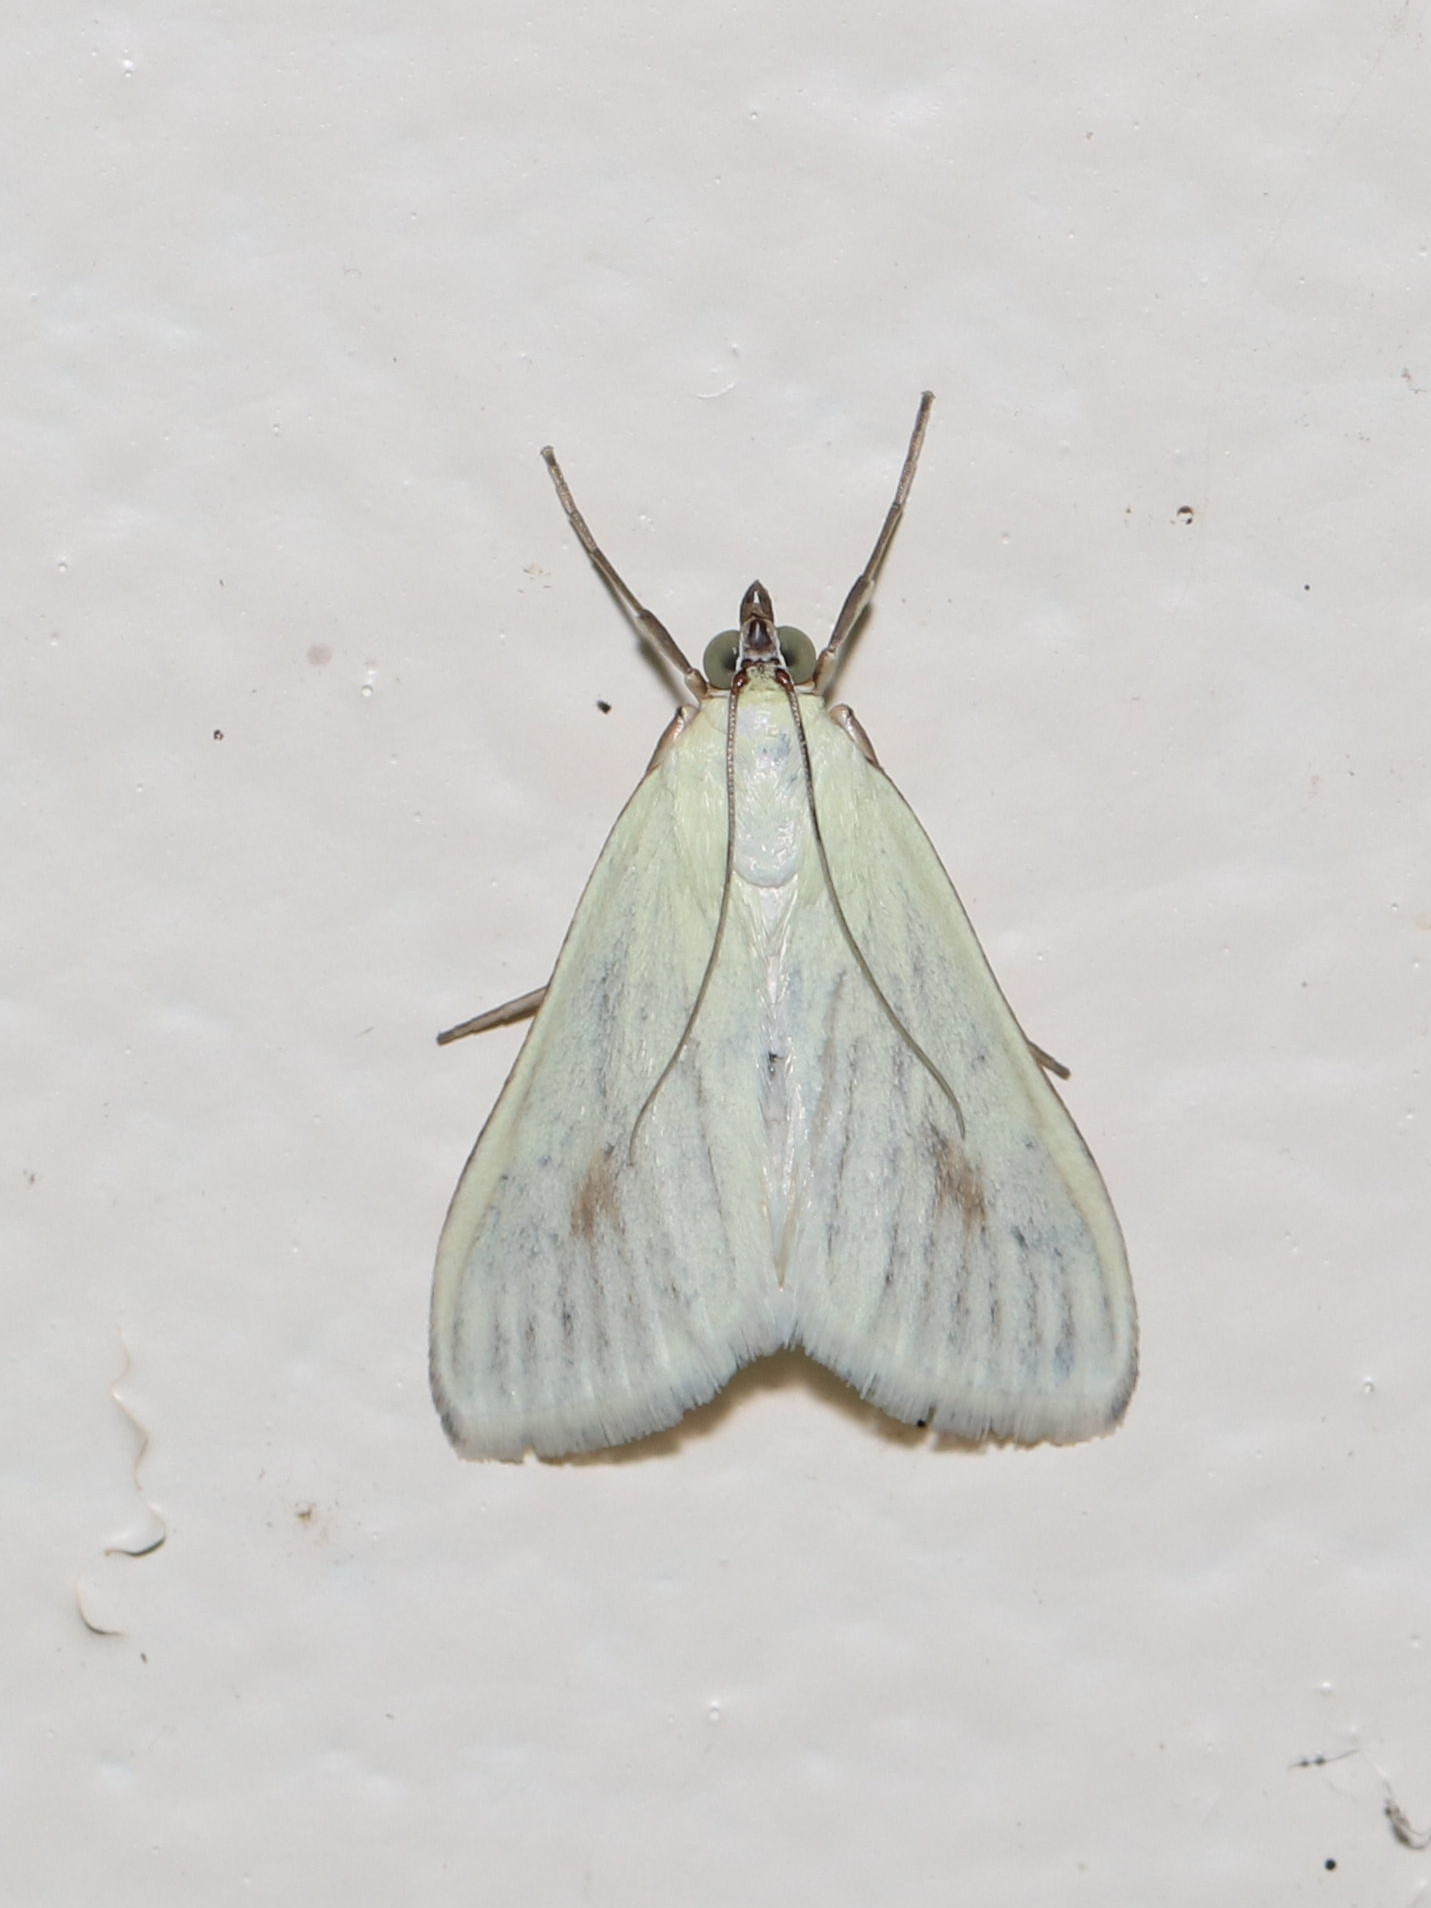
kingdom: Animalia
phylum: Arthropoda
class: Insecta
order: Lepidoptera
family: Crambidae
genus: Sitochroa
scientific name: Sitochroa palealis
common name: Greenish-yellow sitochroa moth
